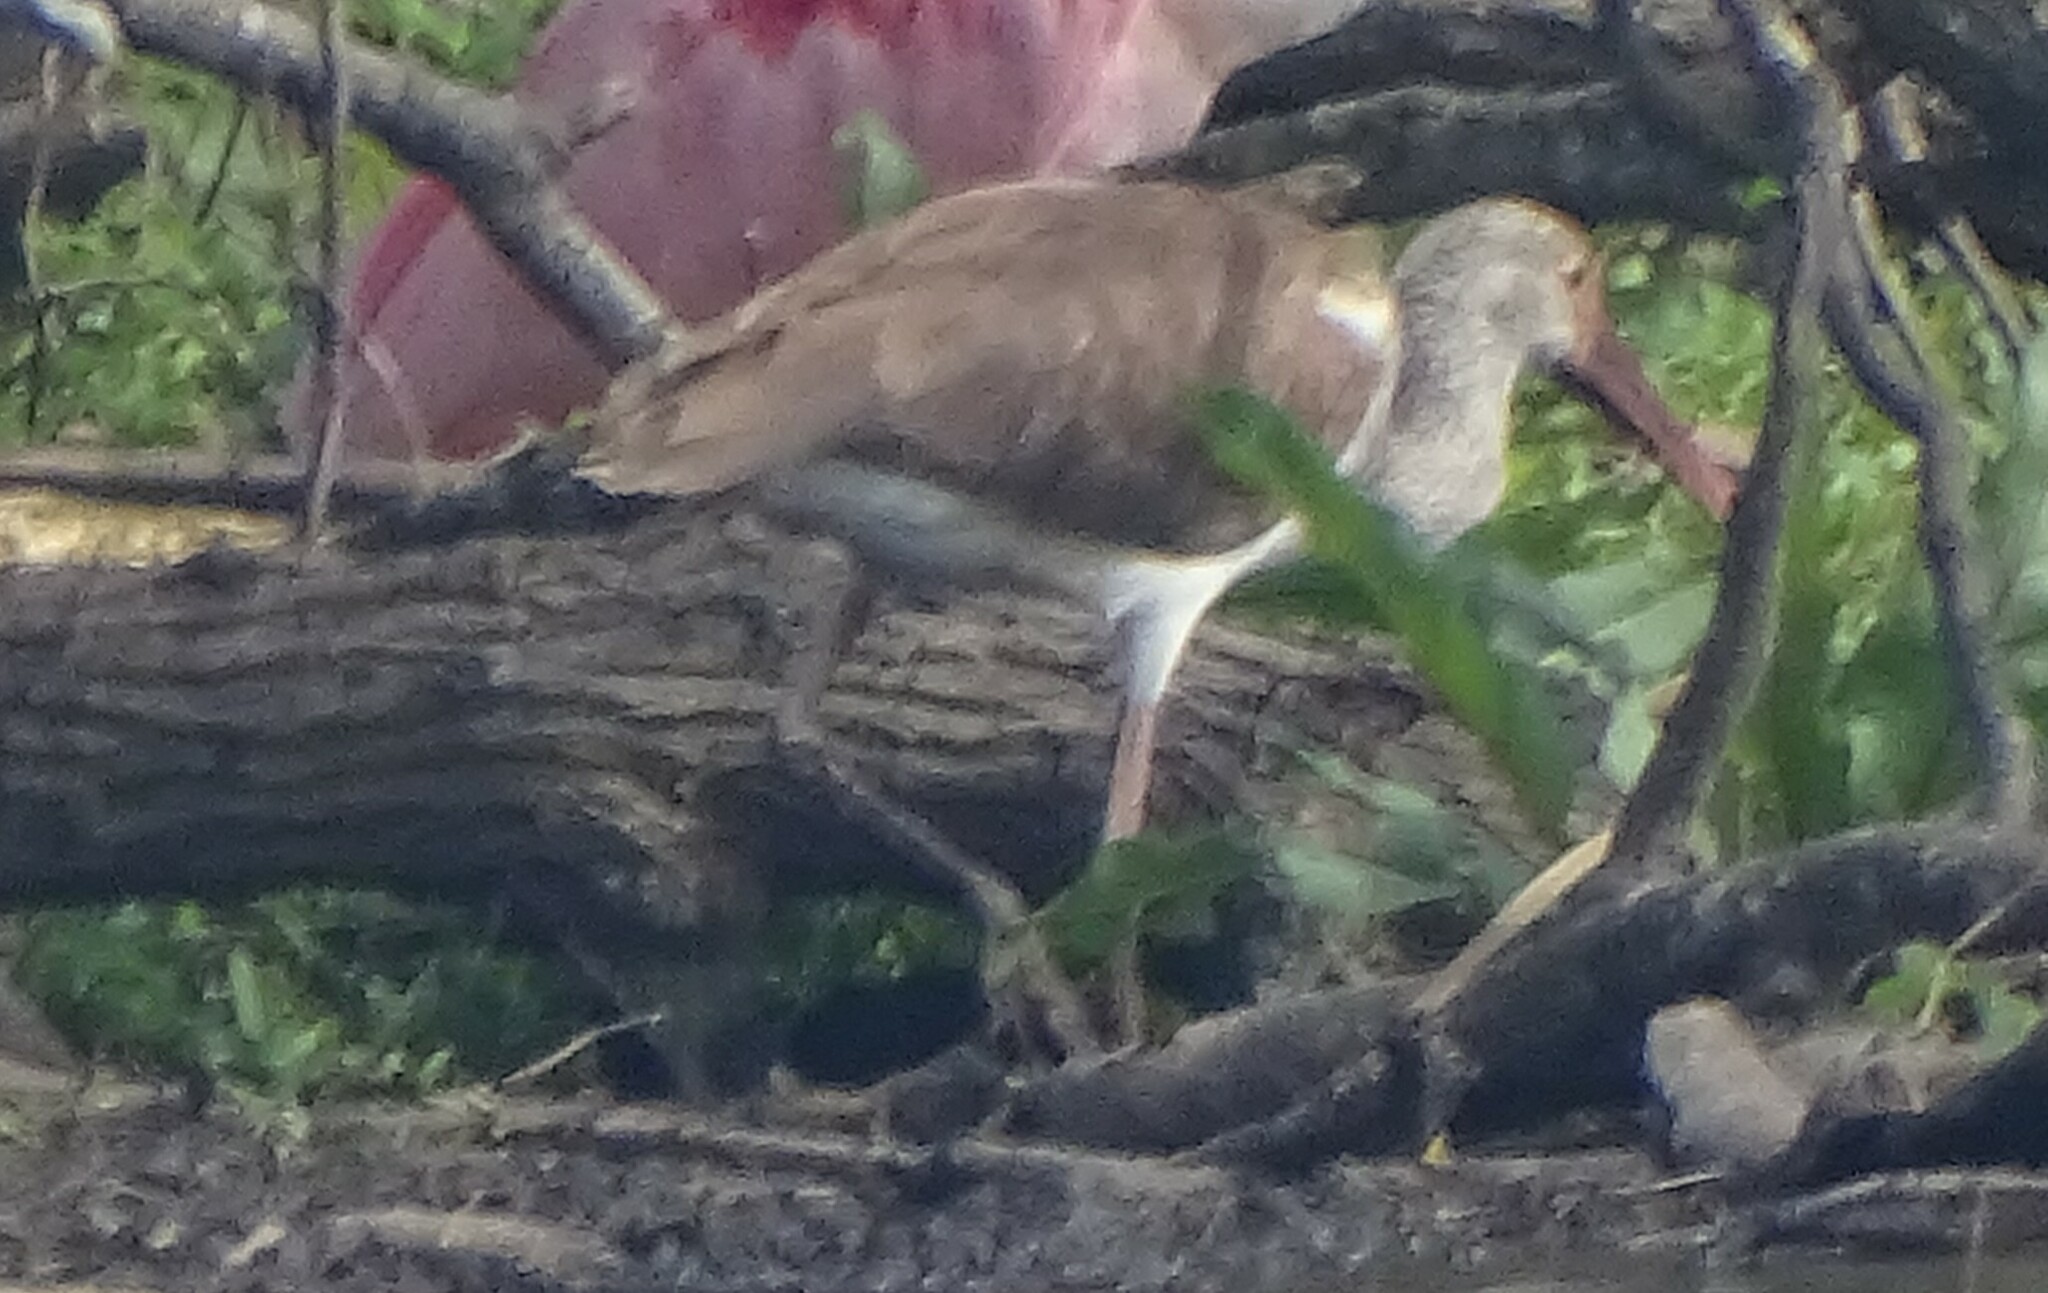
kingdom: Animalia
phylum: Chordata
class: Aves
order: Pelecaniformes
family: Threskiornithidae
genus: Eudocimus
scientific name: Eudocimus albus
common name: White ibis
